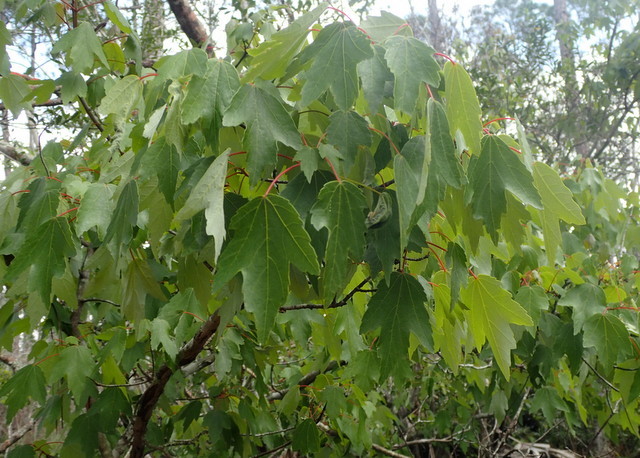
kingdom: Plantae
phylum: Tracheophyta
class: Magnoliopsida
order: Sapindales
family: Sapindaceae
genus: Acer
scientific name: Acer rubrum
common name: Red maple
